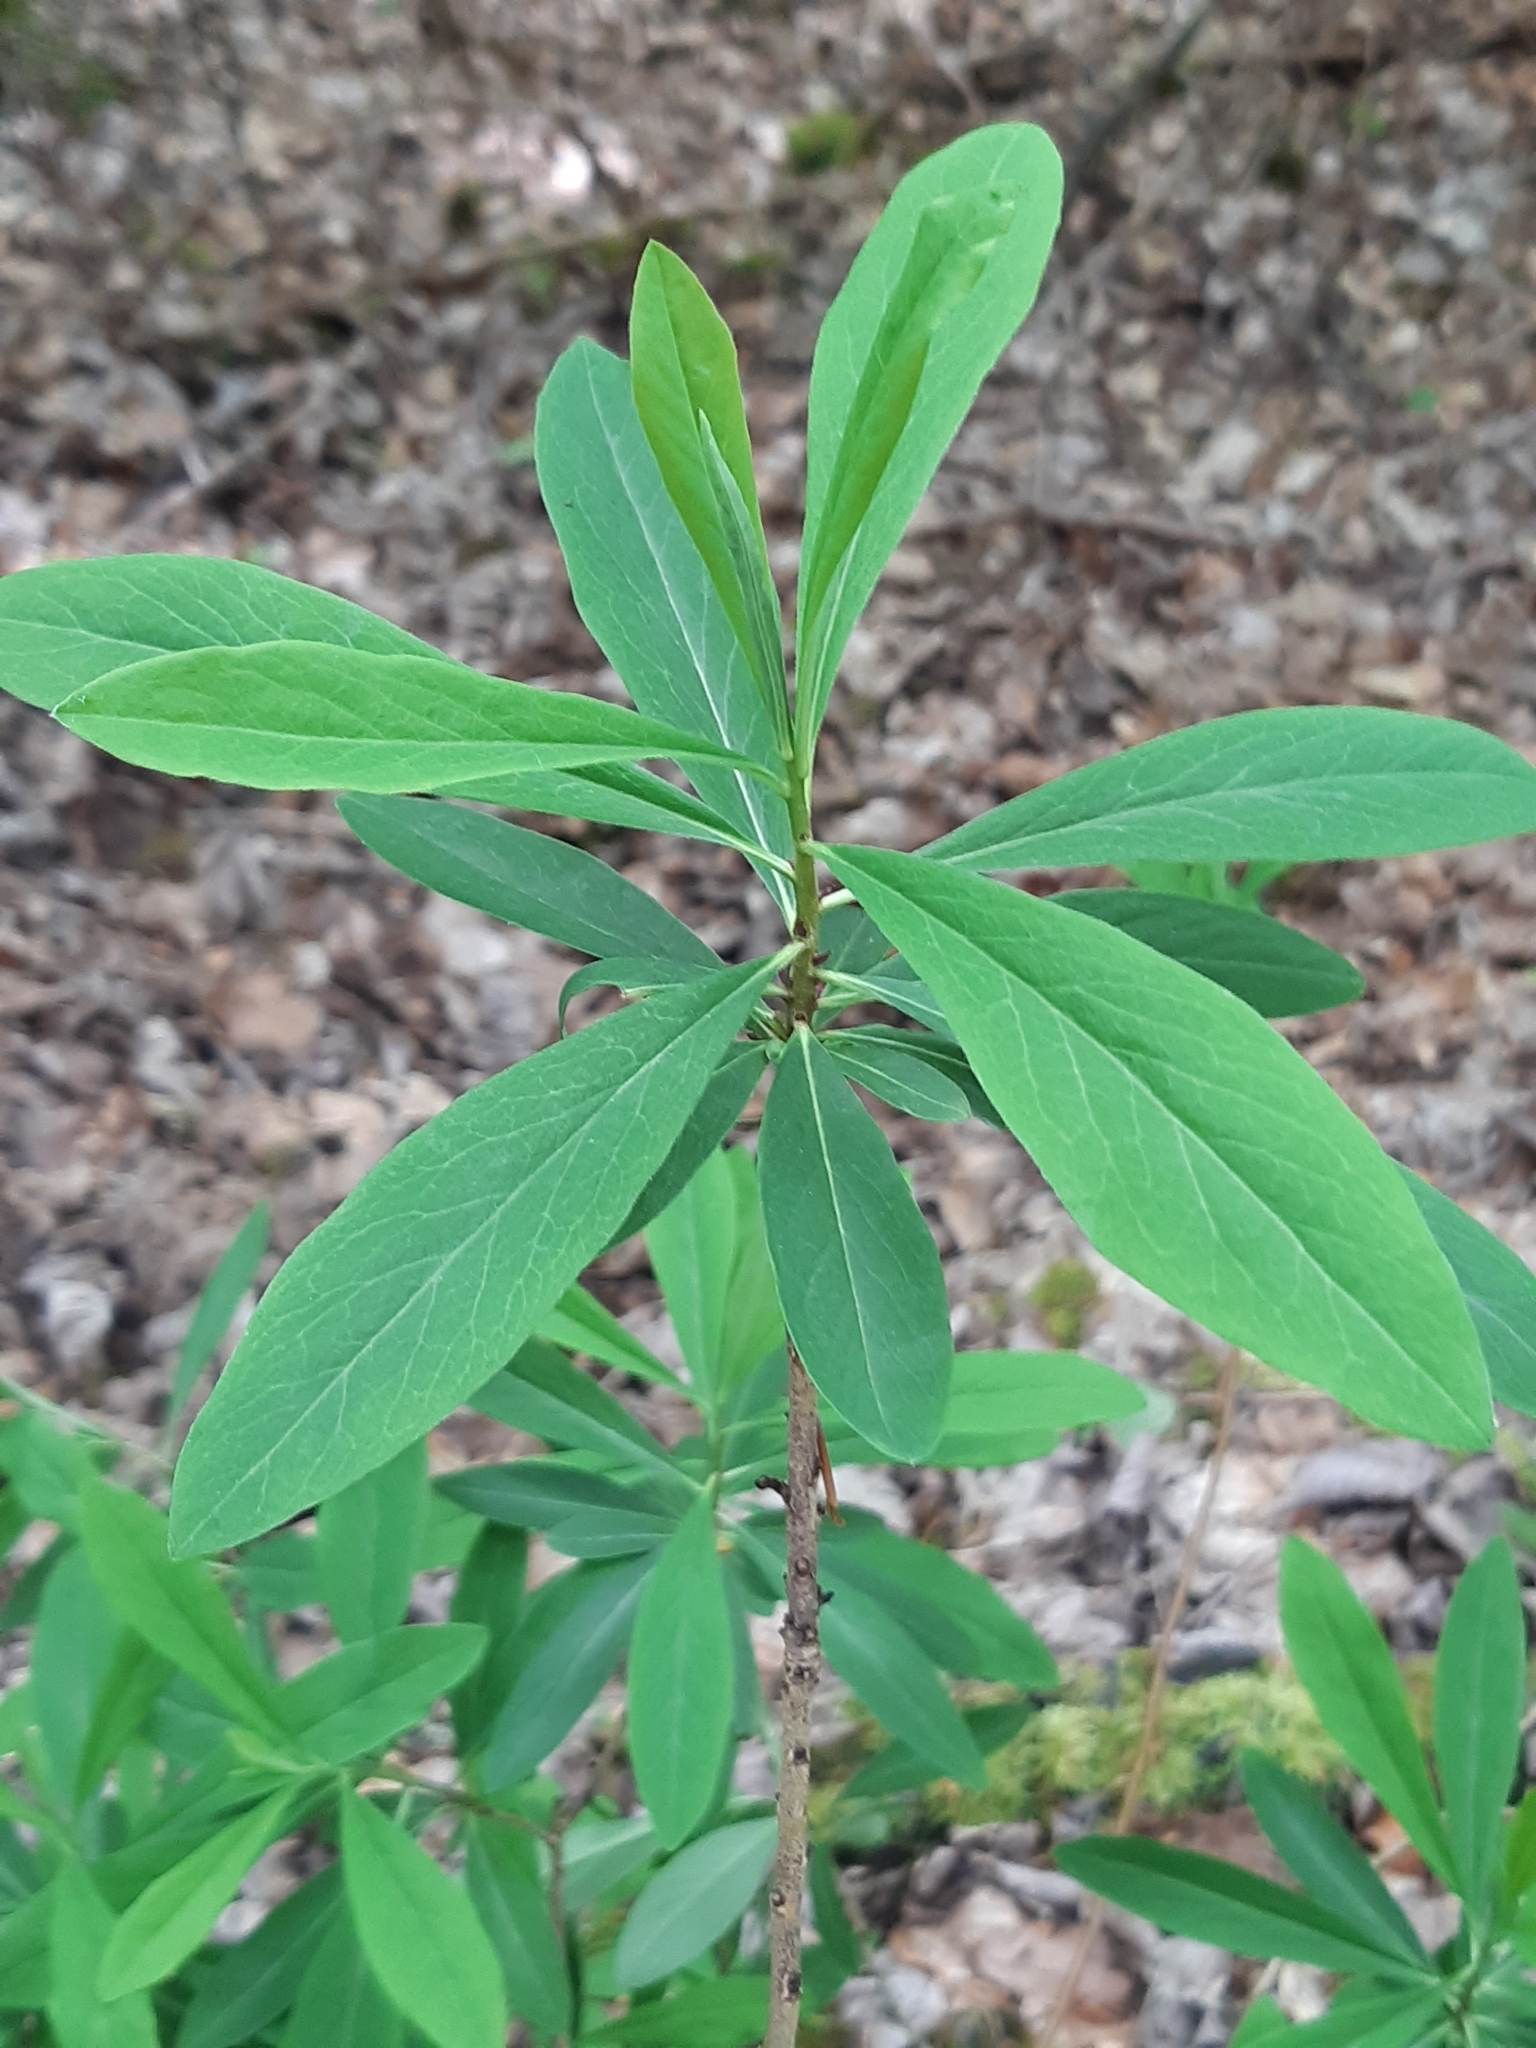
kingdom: Plantae
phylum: Tracheophyta
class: Magnoliopsida
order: Malvales
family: Thymelaeaceae
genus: Daphne
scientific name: Daphne mezereum
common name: Mezereon
